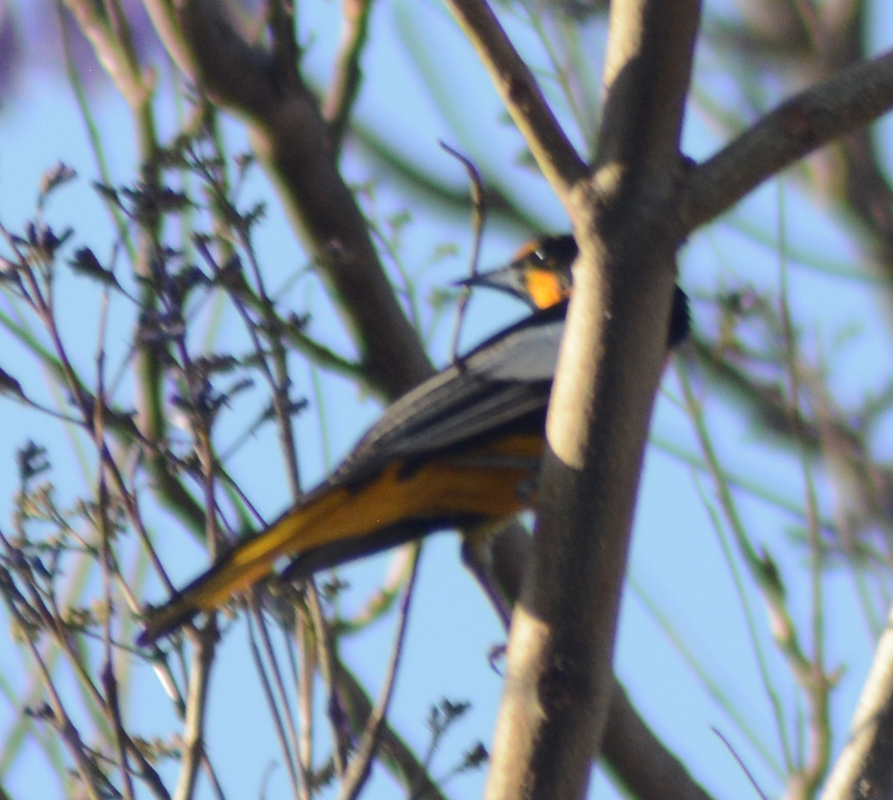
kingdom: Animalia
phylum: Chordata
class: Aves
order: Passeriformes
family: Icteridae
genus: Icterus
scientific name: Icterus abeillei
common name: Black-backed oriole
